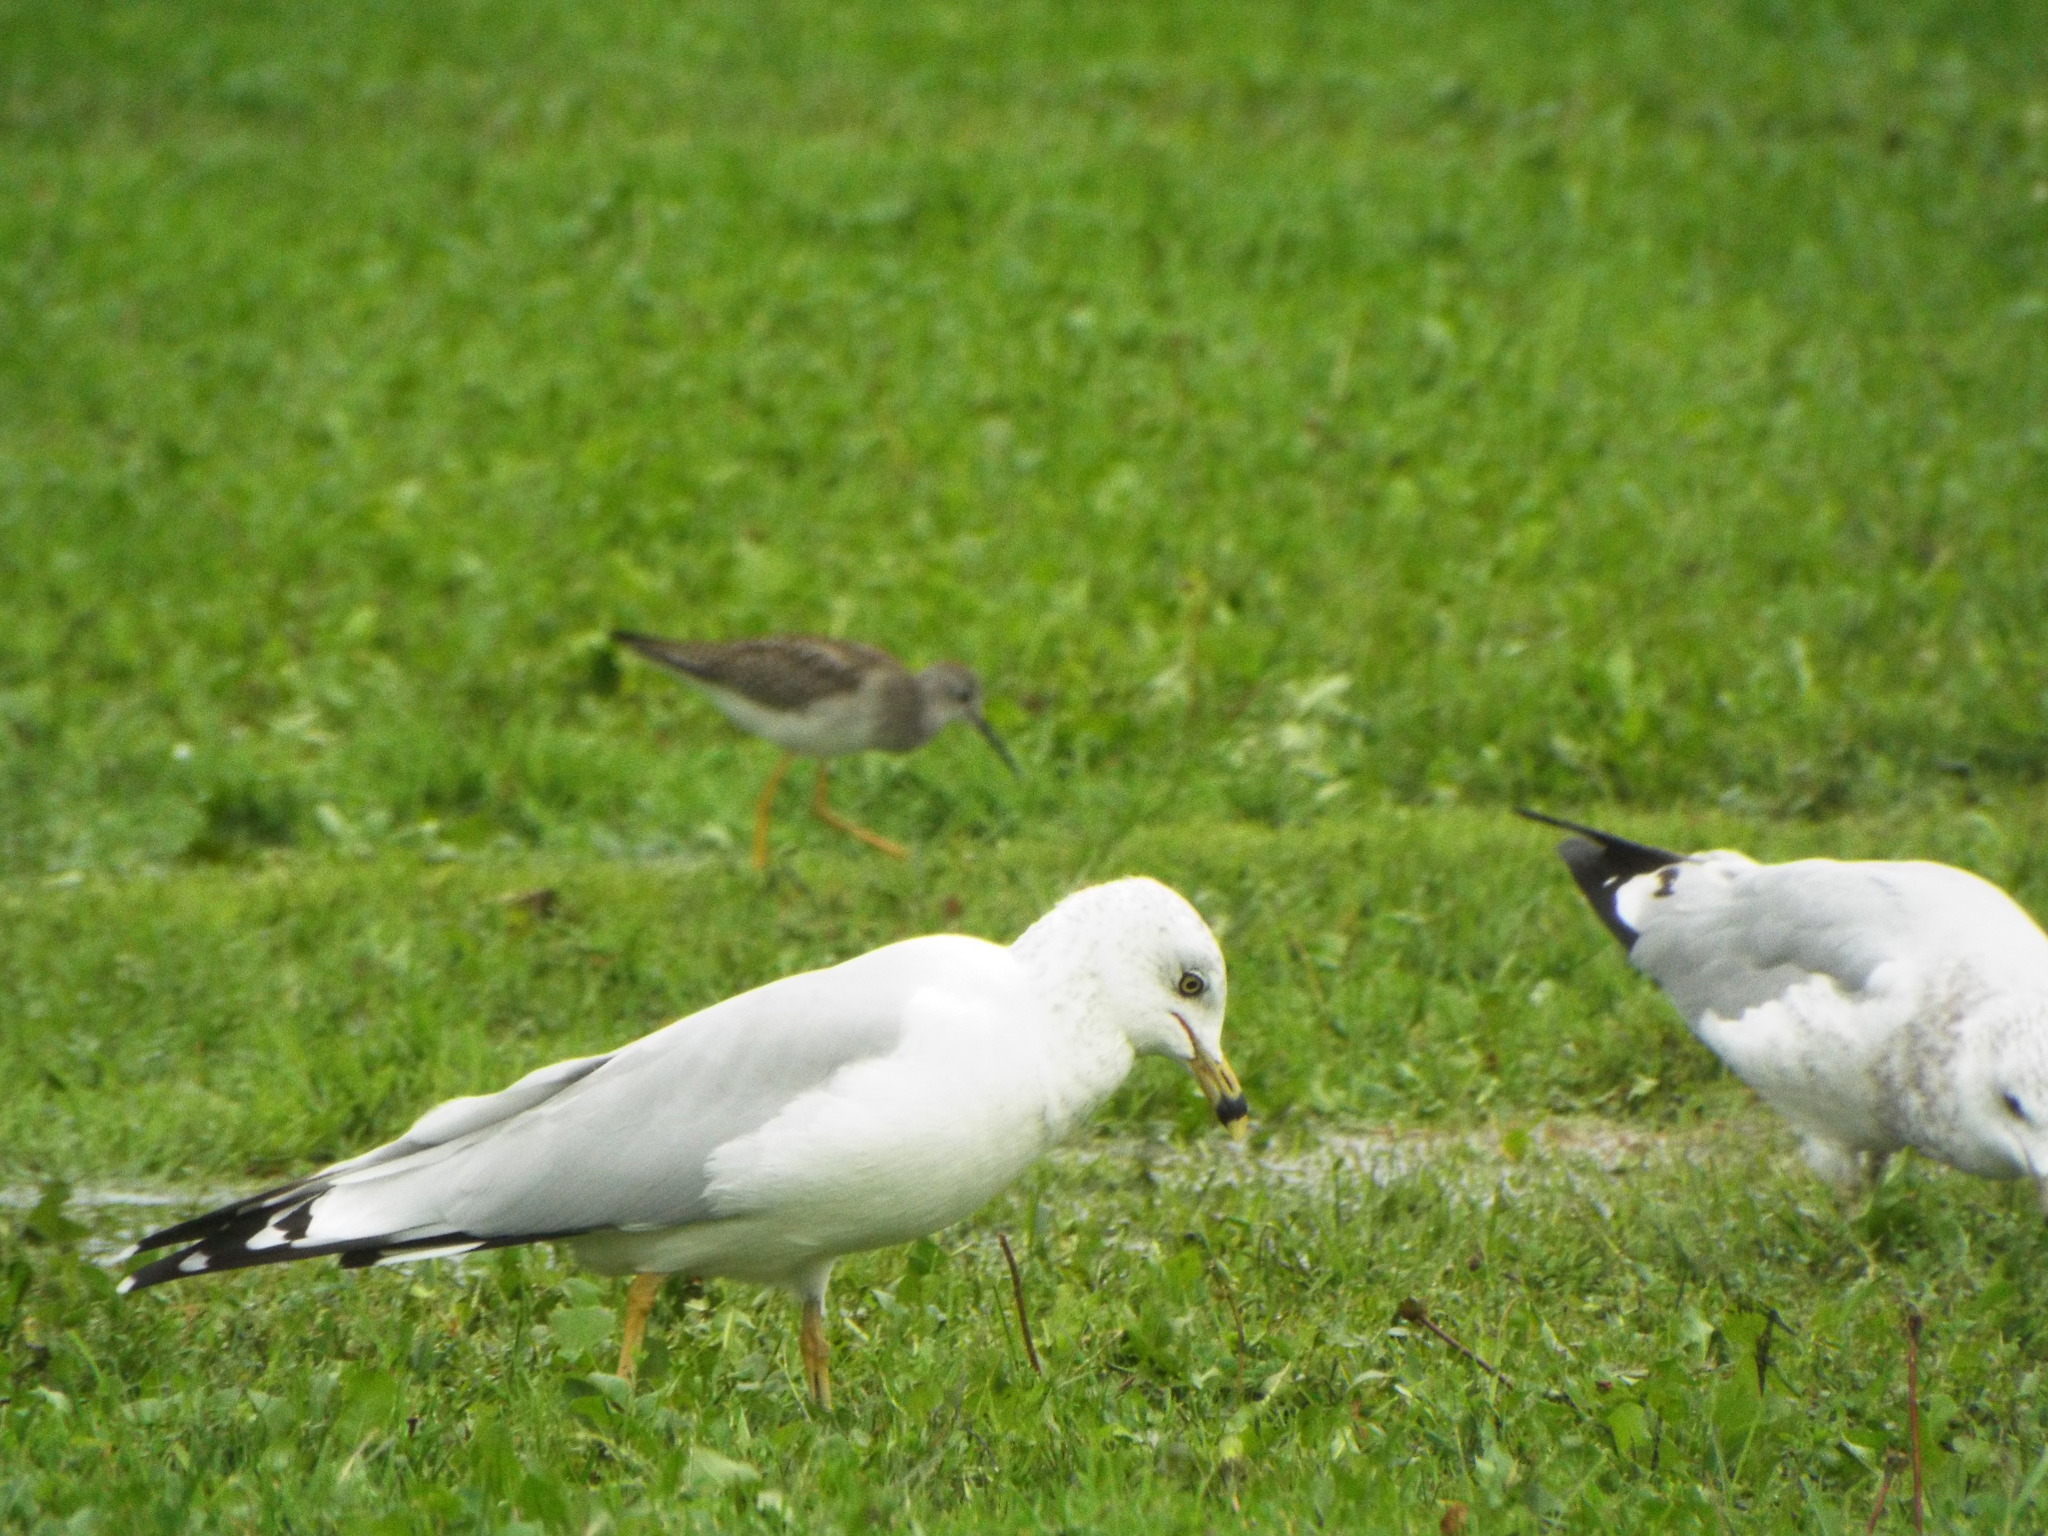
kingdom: Animalia
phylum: Chordata
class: Aves
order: Charadriiformes
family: Laridae
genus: Larus
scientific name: Larus delawarensis
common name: Ring-billed gull
